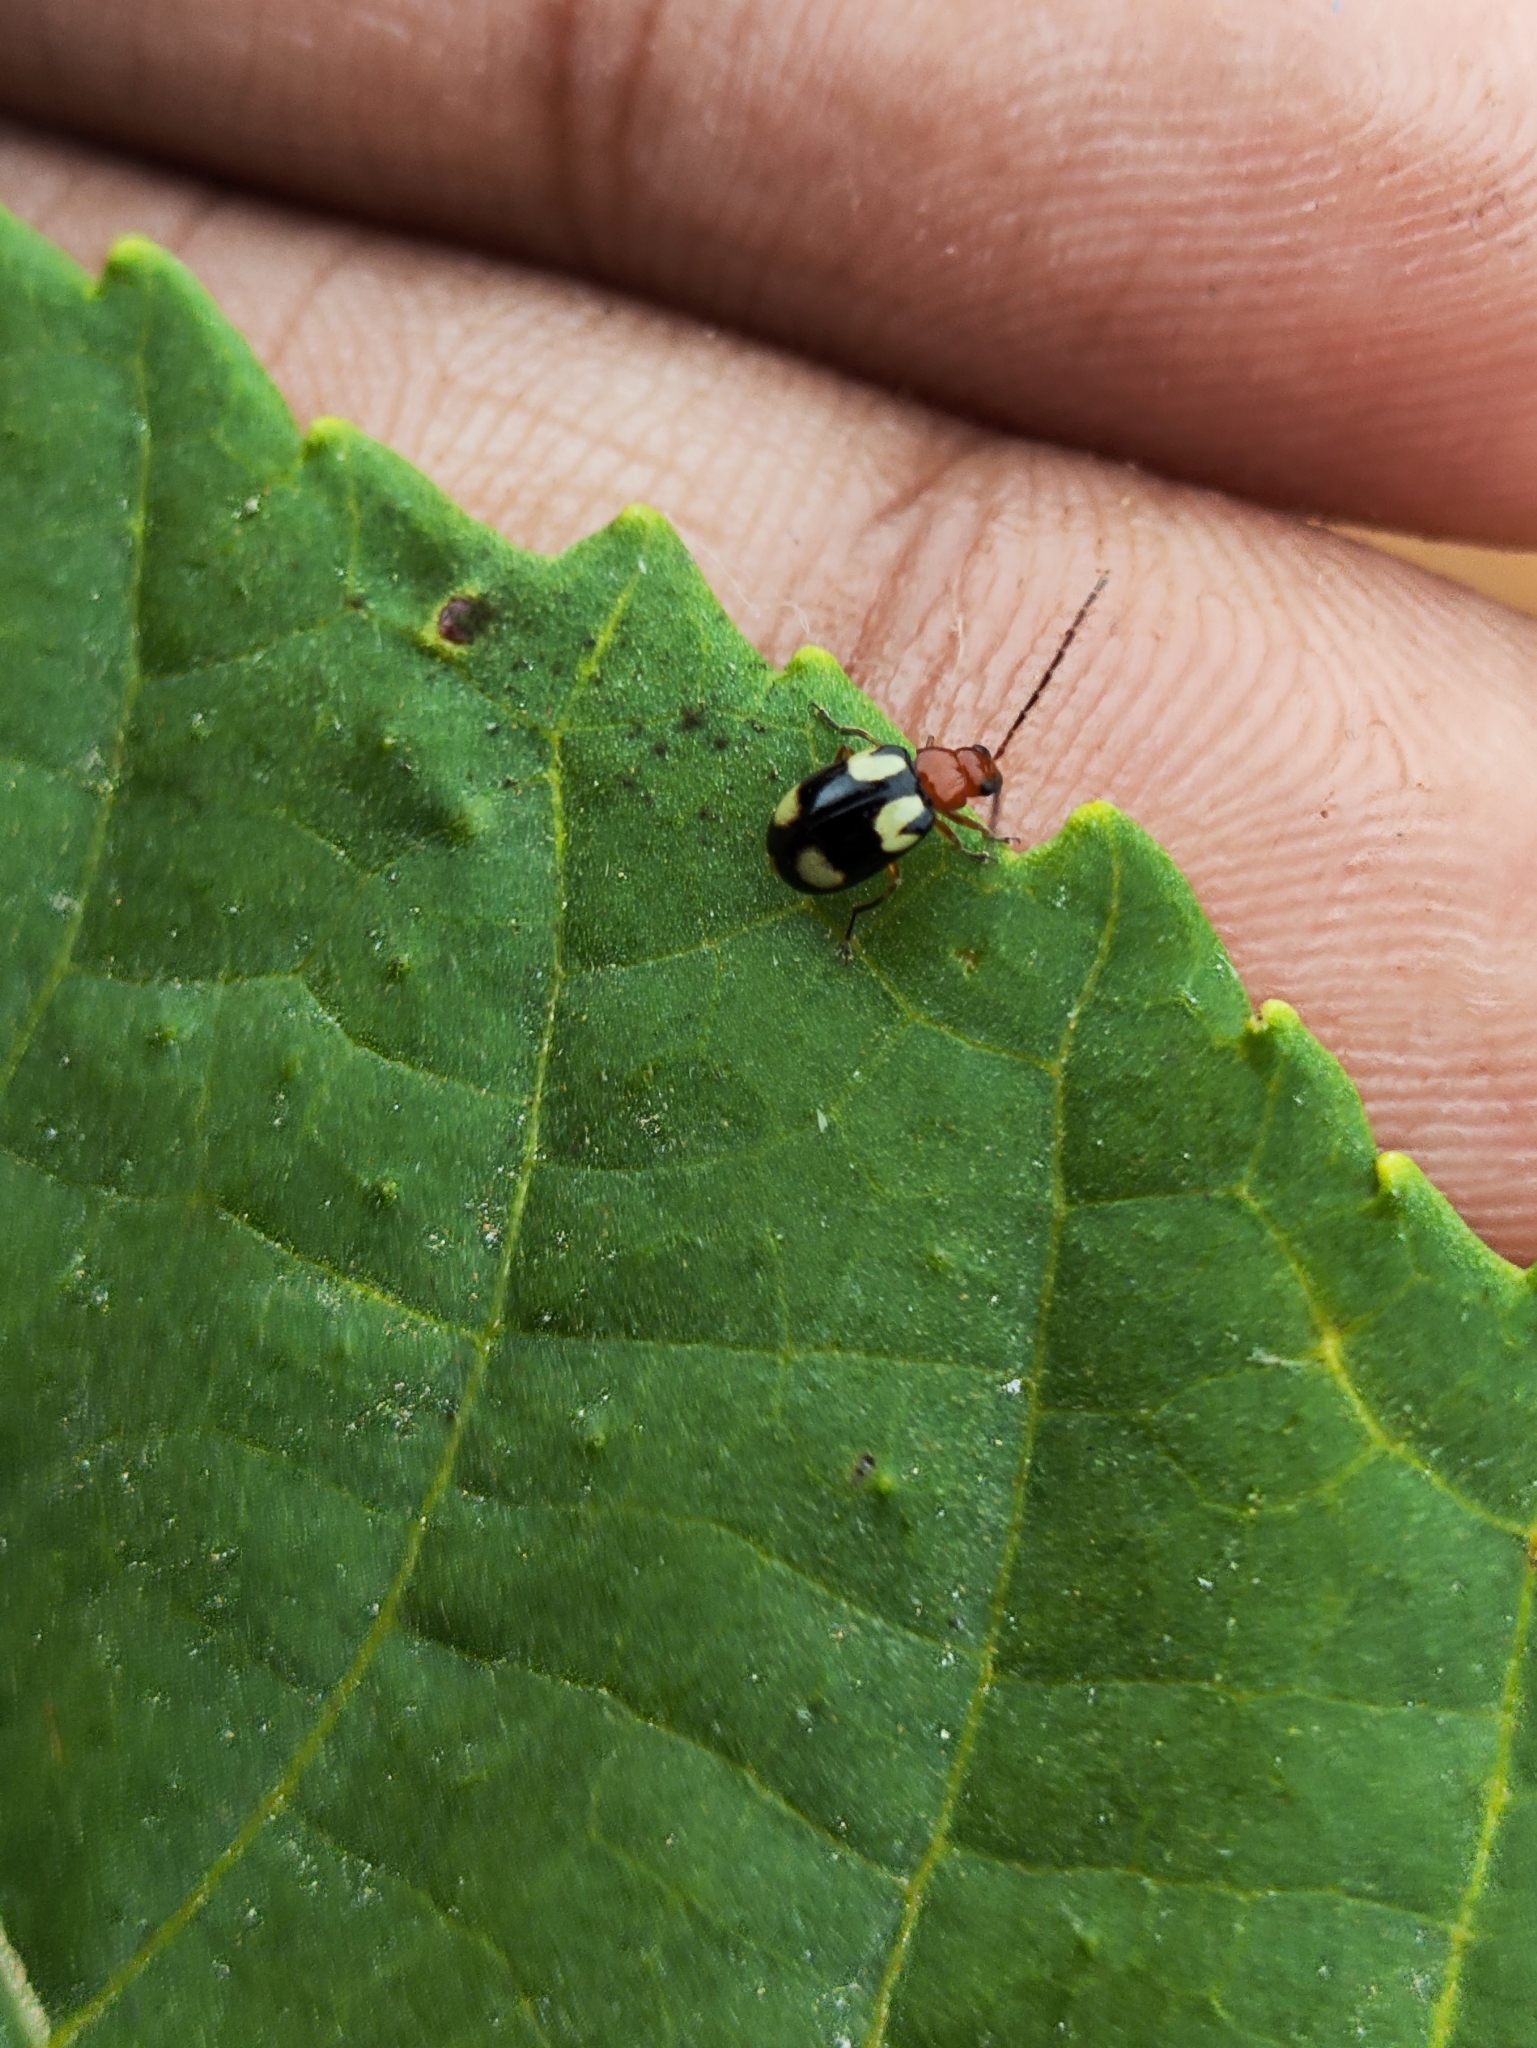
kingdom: Animalia
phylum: Arthropoda
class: Insecta
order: Coleoptera
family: Chrysomelidae
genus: Monolepta
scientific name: Monolepta signata
